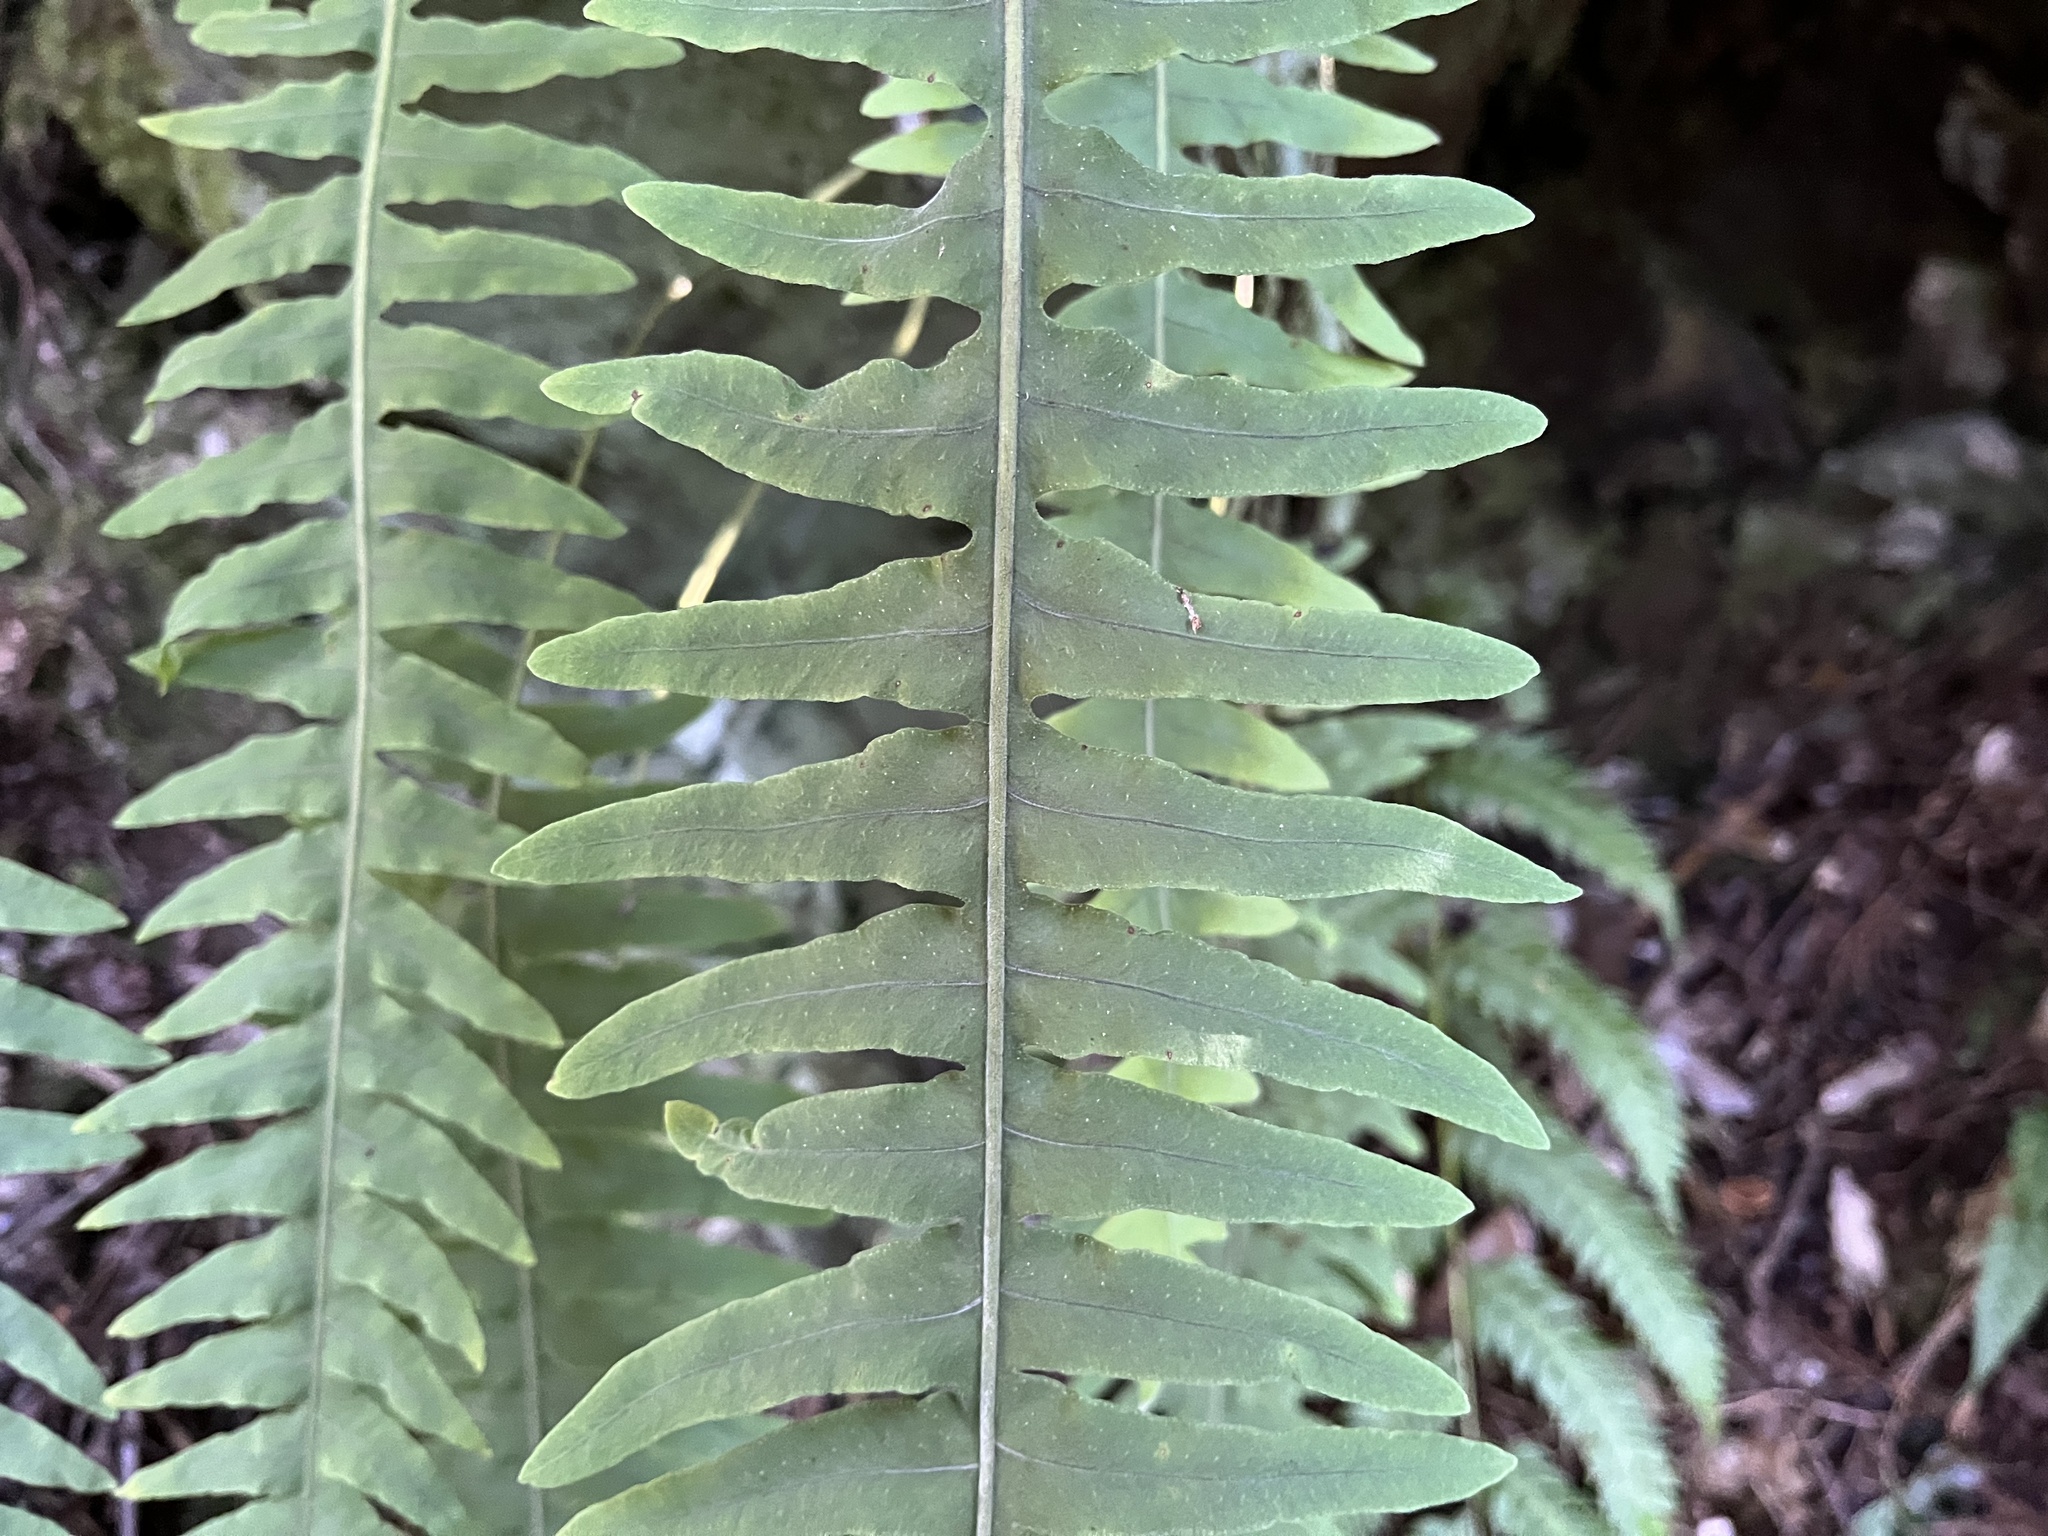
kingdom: Plantae
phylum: Tracheophyta
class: Polypodiopsida
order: Polypodiales
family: Polypodiaceae
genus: Goniophlebium
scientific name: Goniophlebium niponicum
